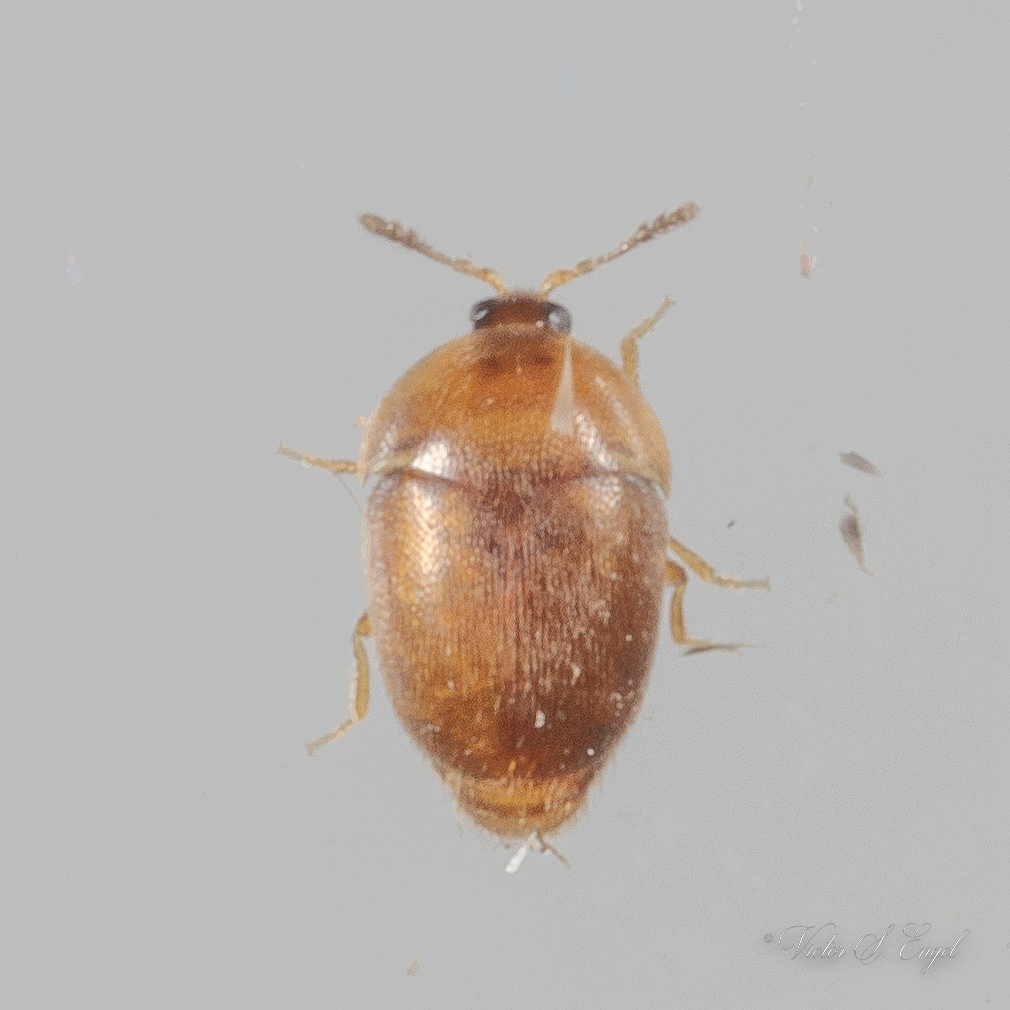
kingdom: Animalia
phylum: Arthropoda
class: Insecta
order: Coleoptera
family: Corylophidae
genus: Sericoderus
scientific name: Sericoderus
